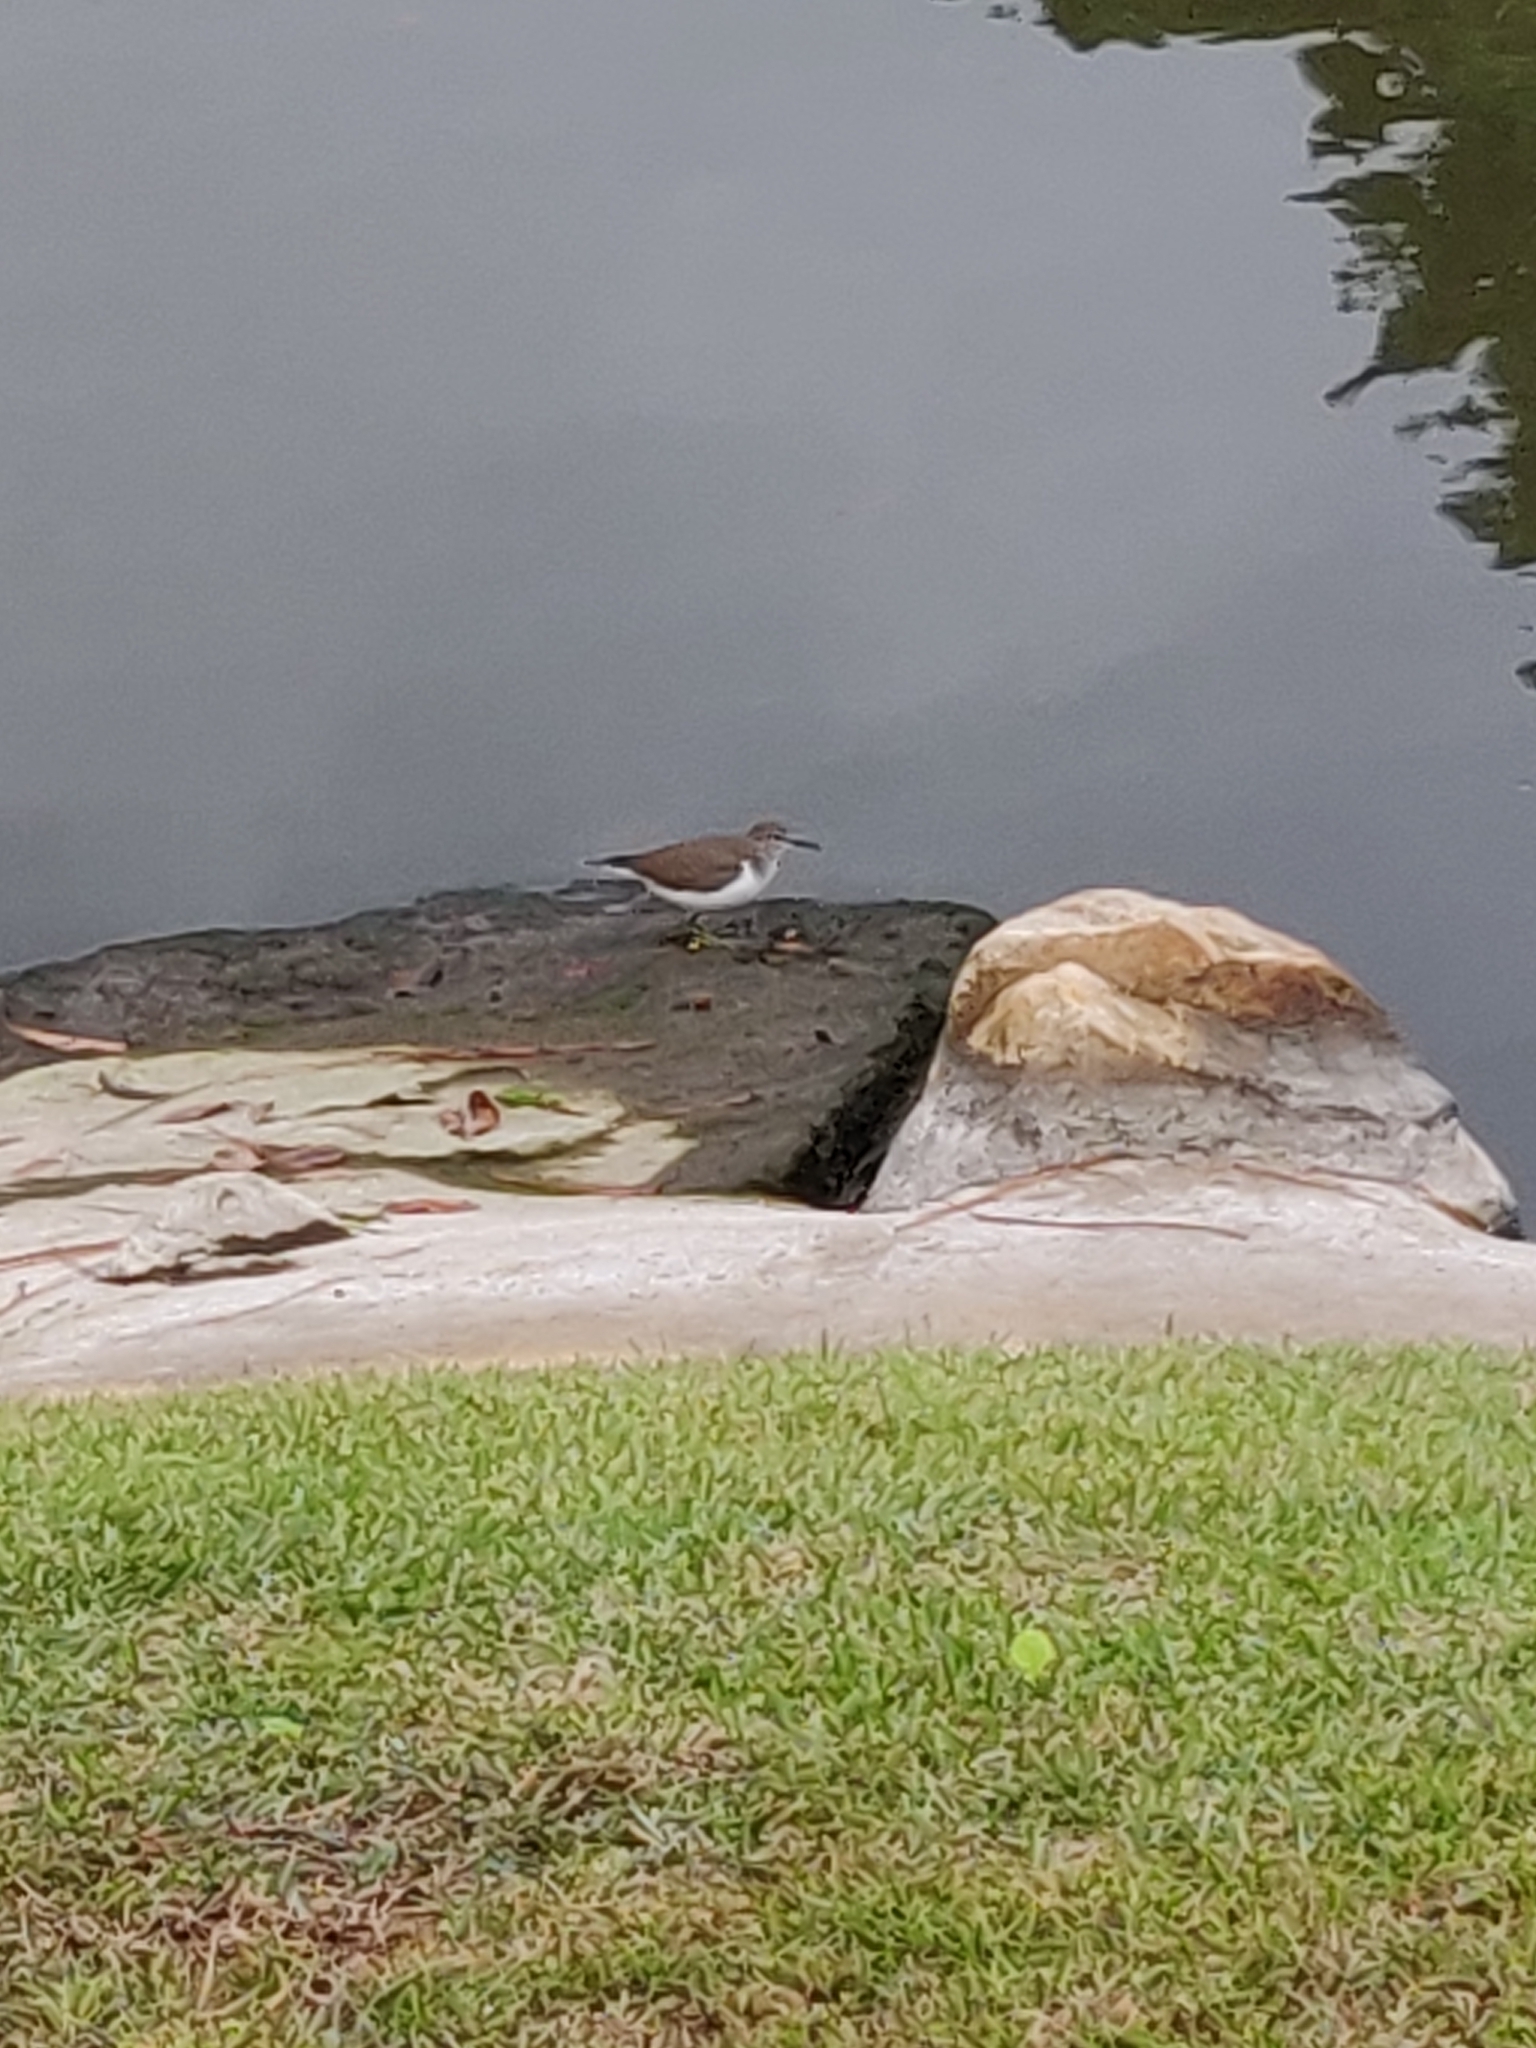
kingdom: Animalia
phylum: Chordata
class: Aves
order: Charadriiformes
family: Scolopacidae
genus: Actitis
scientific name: Actitis hypoleucos
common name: Common sandpiper
